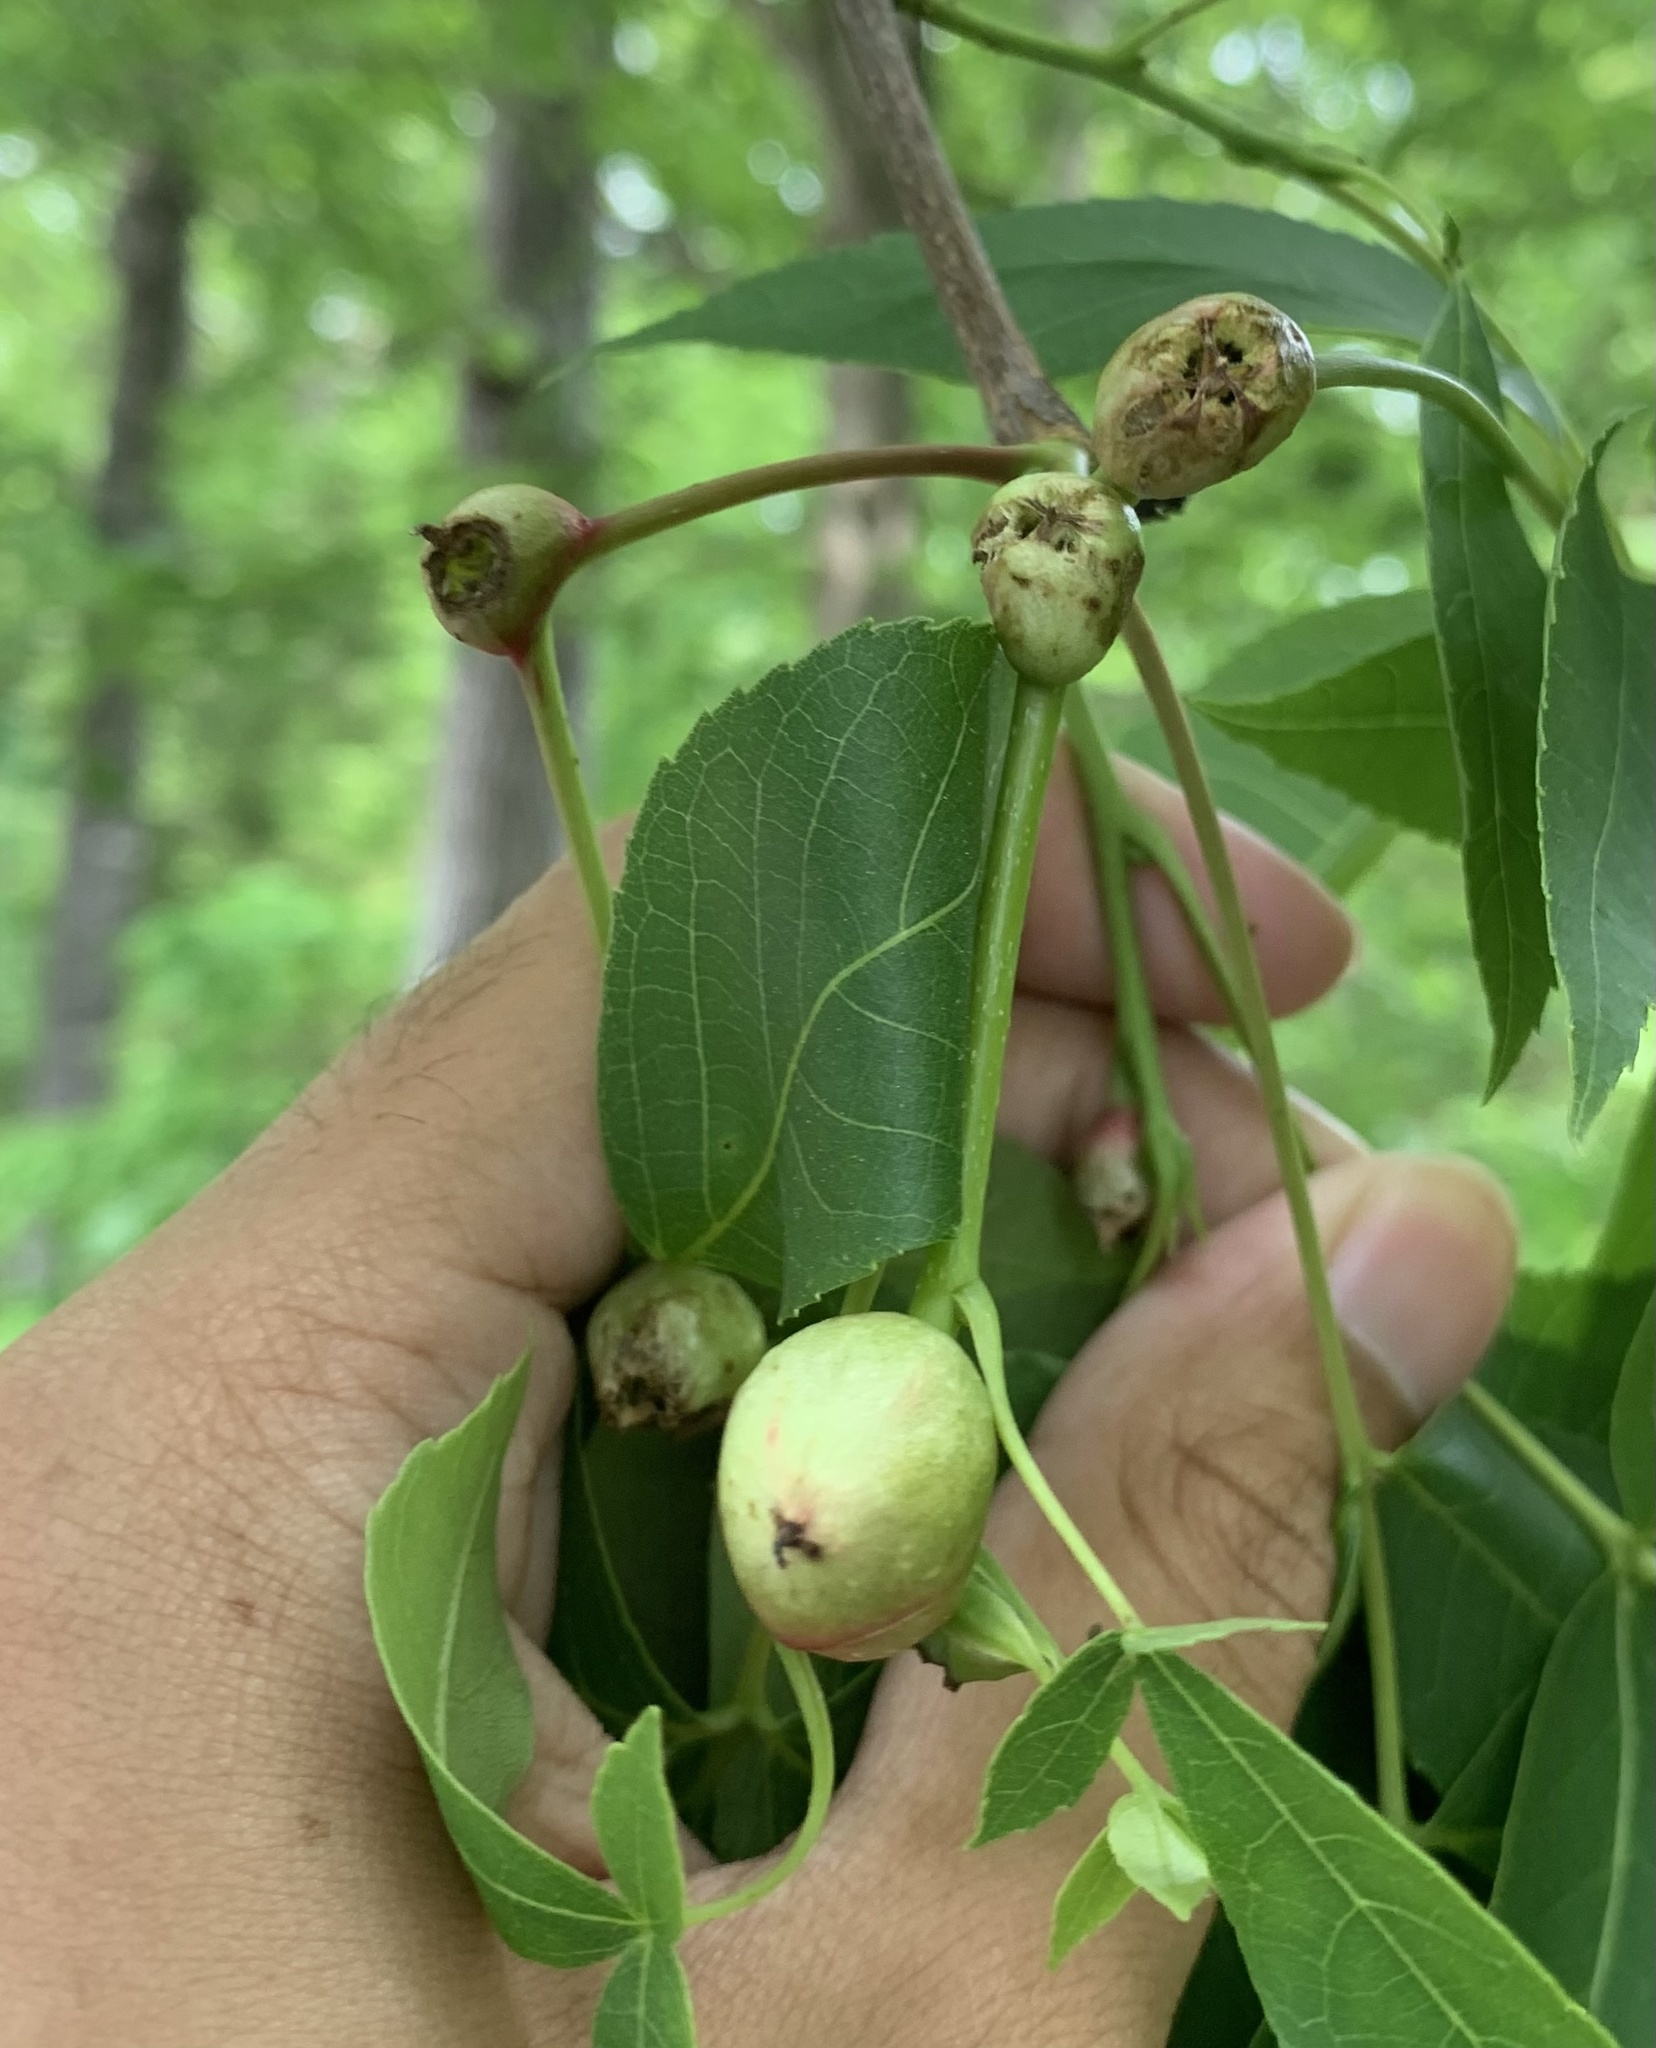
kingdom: Animalia
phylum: Arthropoda
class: Insecta
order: Hemiptera
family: Phylloxeridae
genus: Phylloxera
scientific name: Phylloxera caryaecaulis
